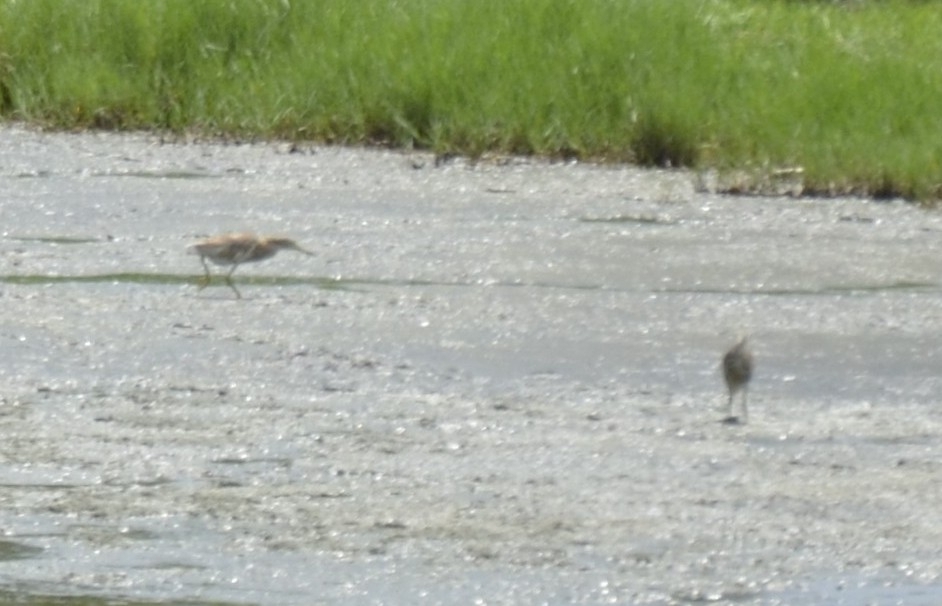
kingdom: Animalia
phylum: Chordata
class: Aves
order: Pelecaniformes
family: Ardeidae
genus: Ardeola
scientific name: Ardeola grayii
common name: Indian pond heron
